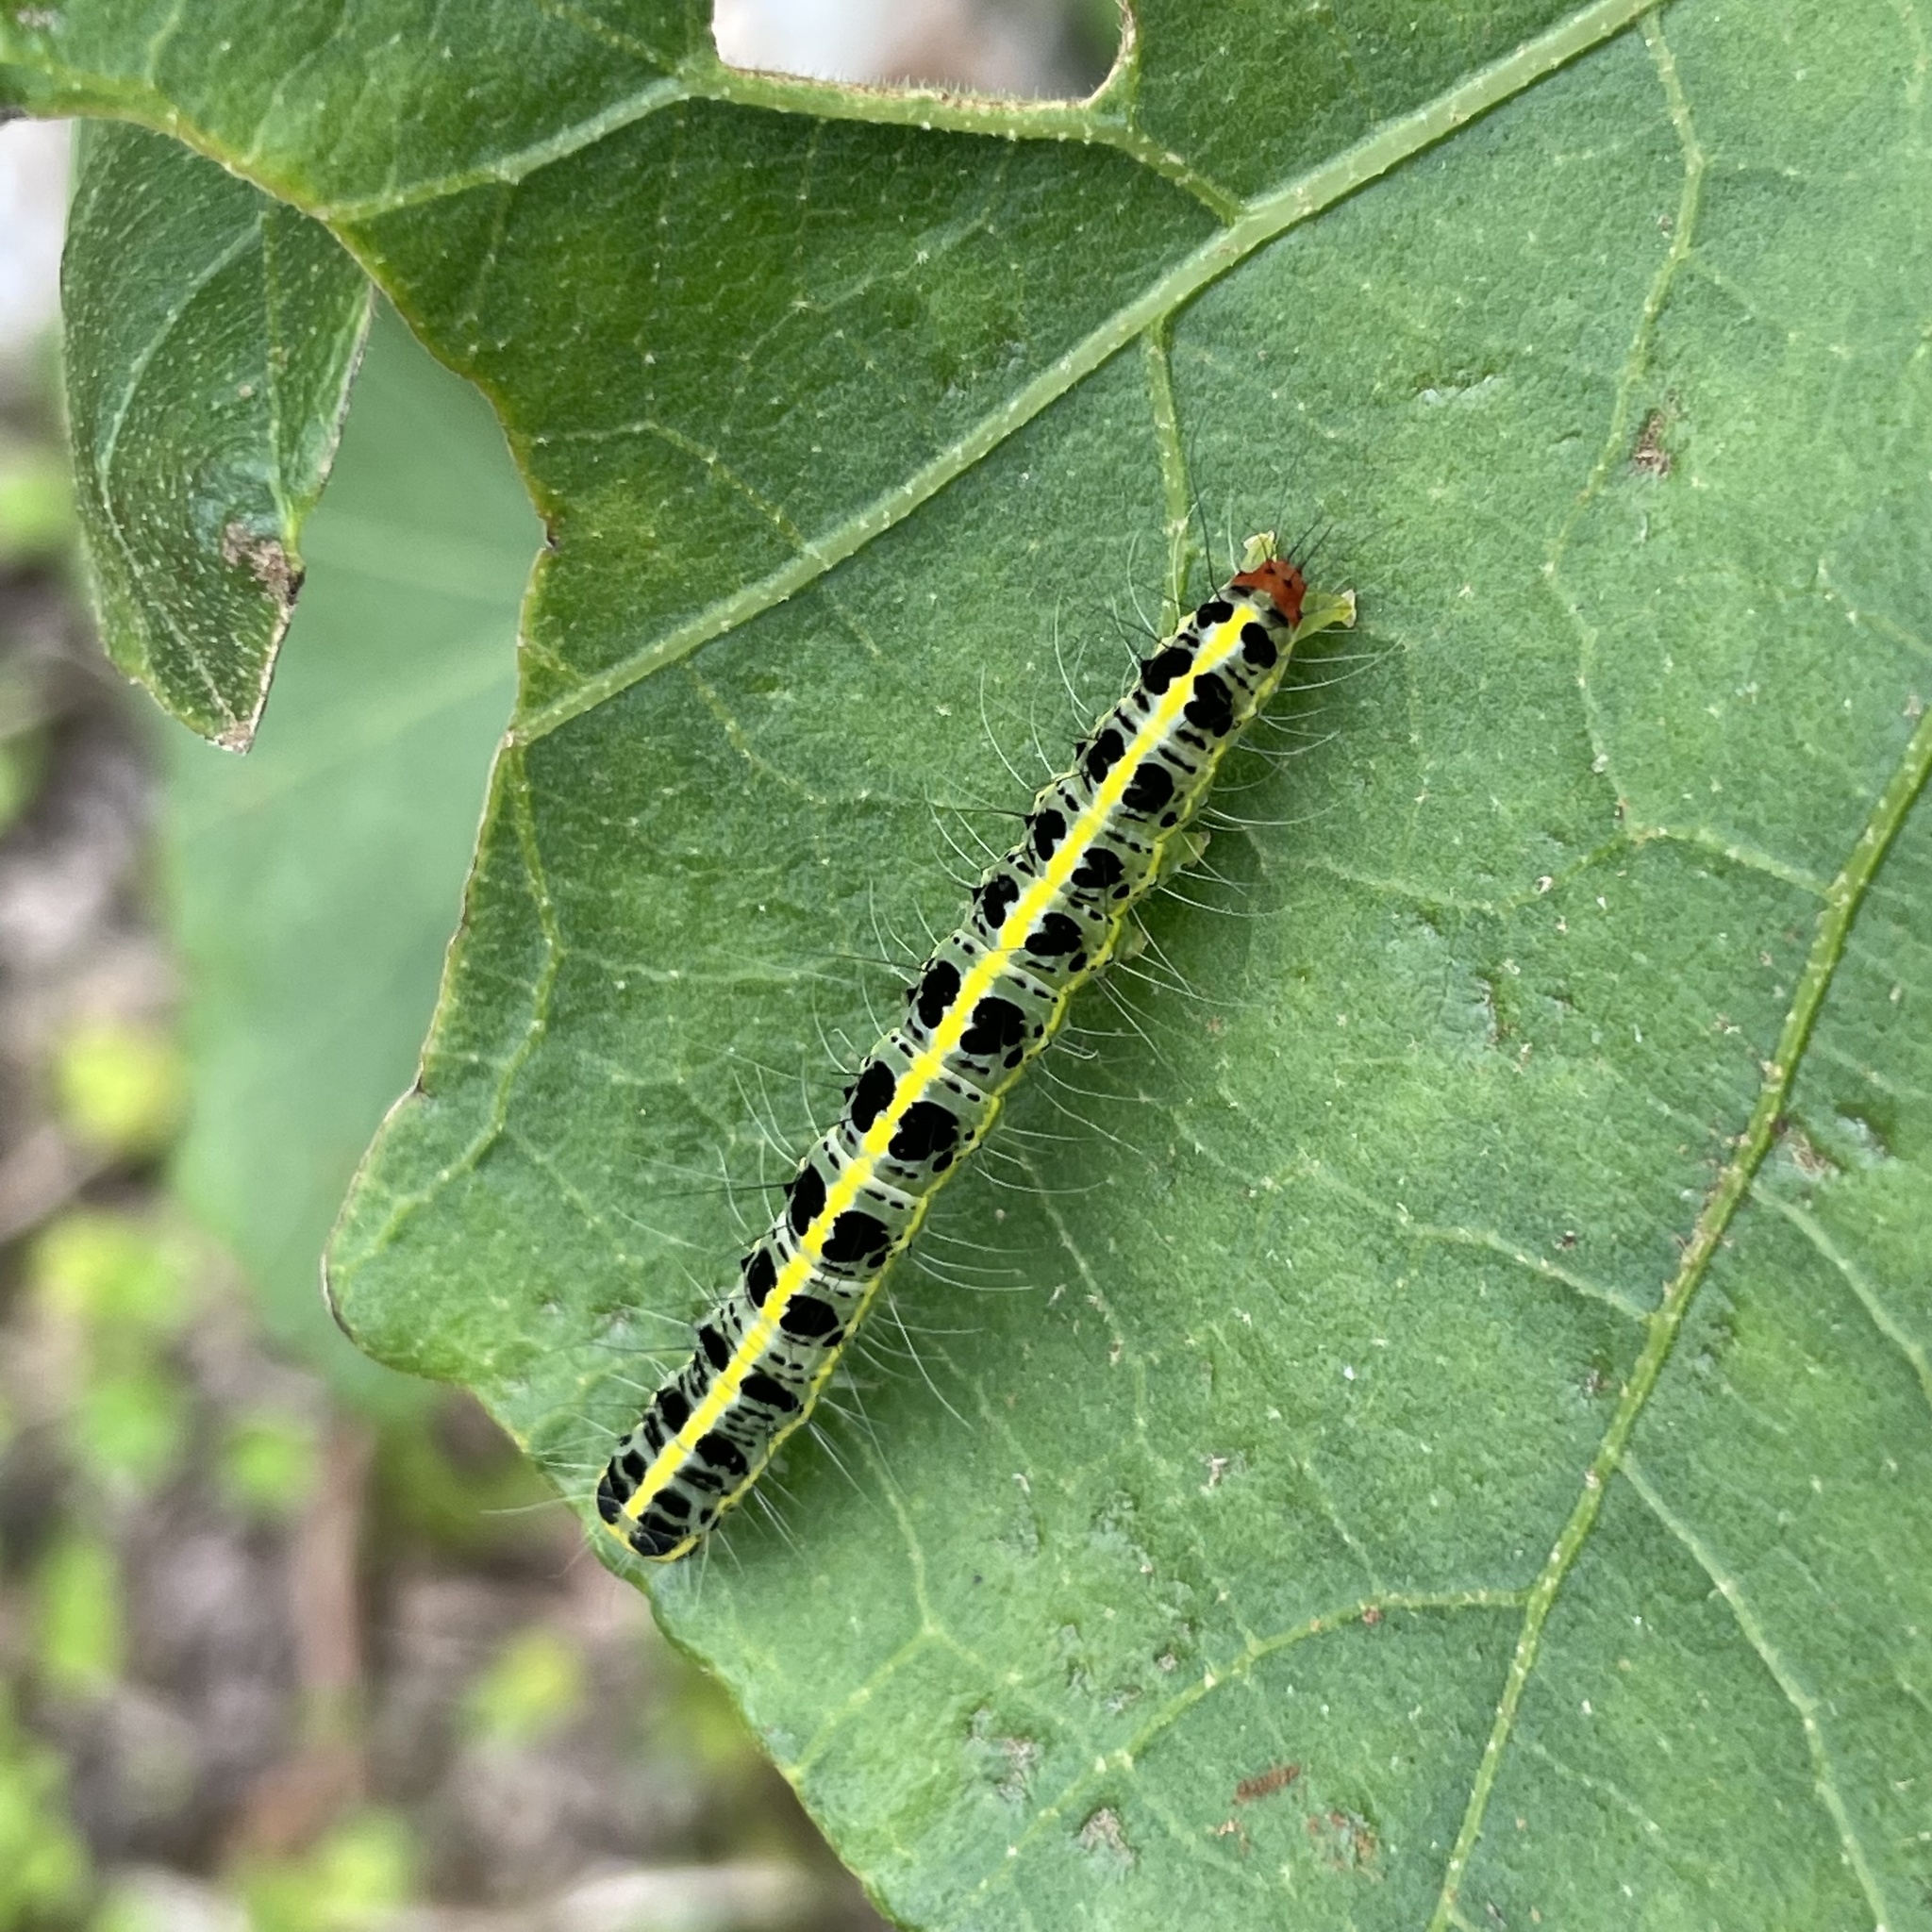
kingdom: Animalia
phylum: Arthropoda
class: Insecta
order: Lepidoptera
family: Nolidae
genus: Xanthodes
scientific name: Xanthodes transversa
